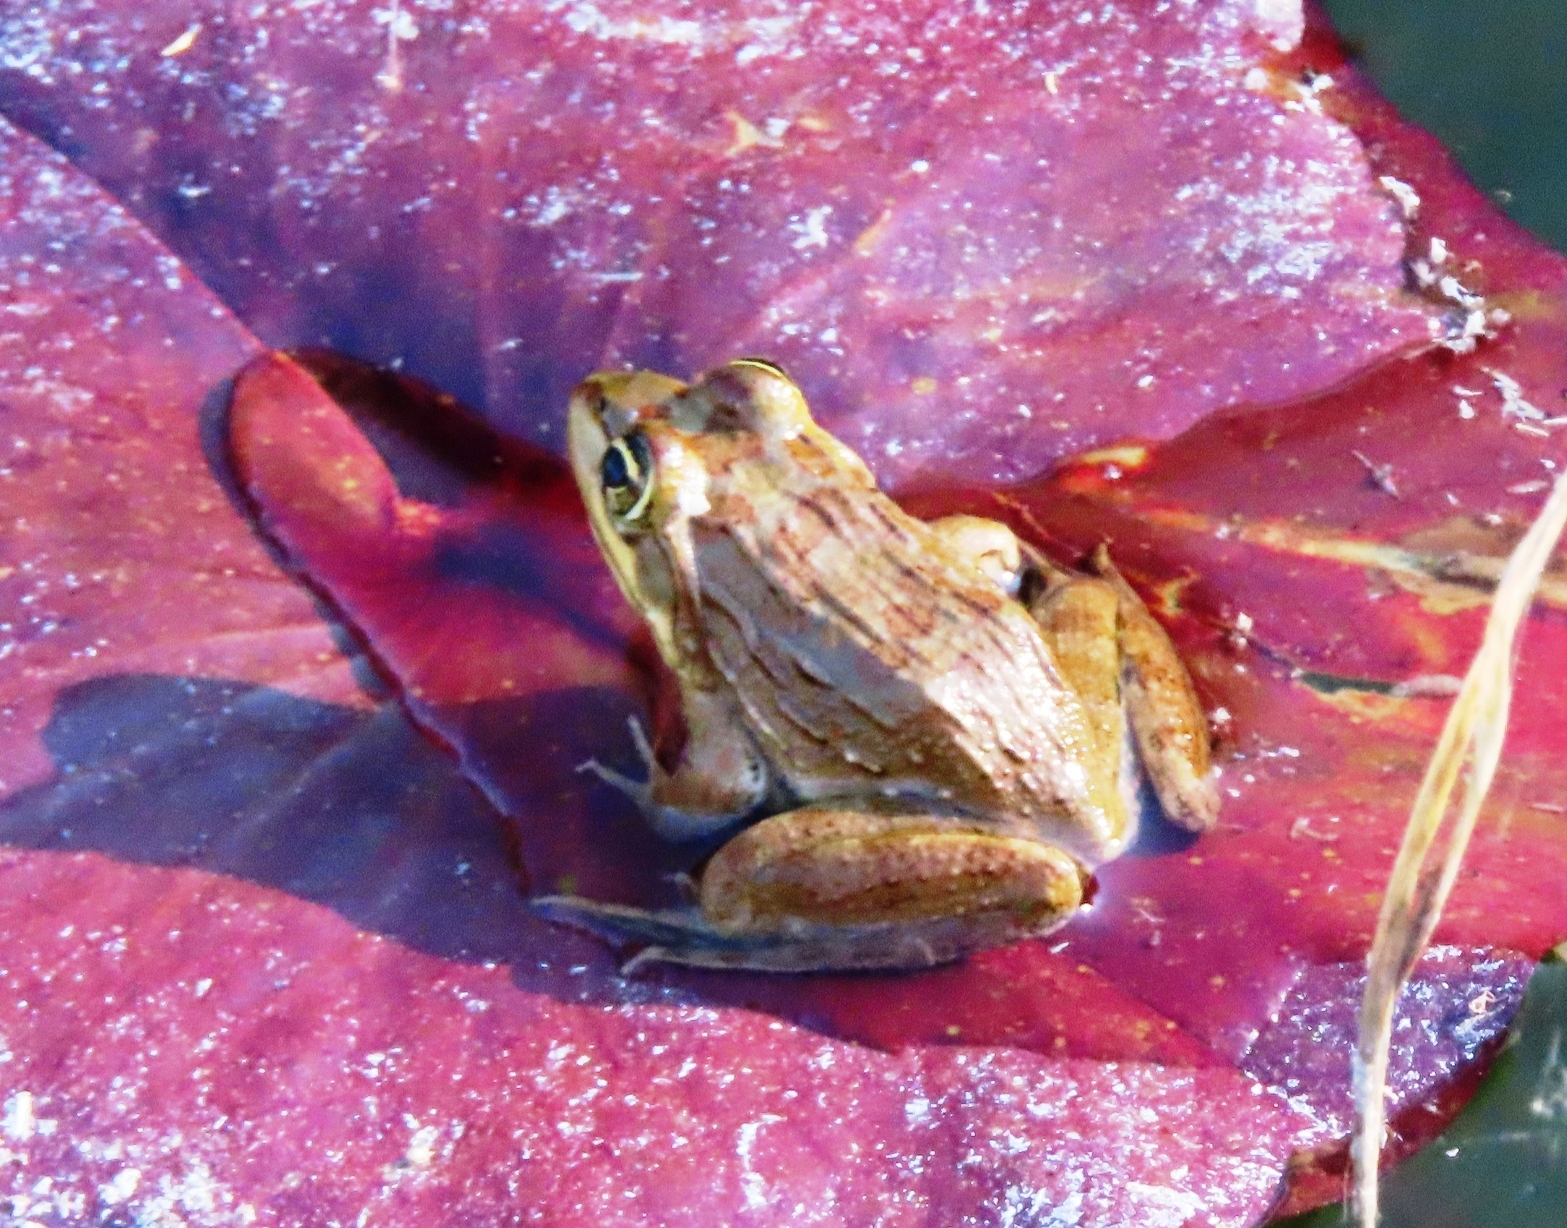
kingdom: Animalia
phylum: Chordata
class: Amphibia
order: Anura
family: Pyxicephalidae
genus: Amietia
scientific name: Amietia fuscigula
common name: Cape rana
